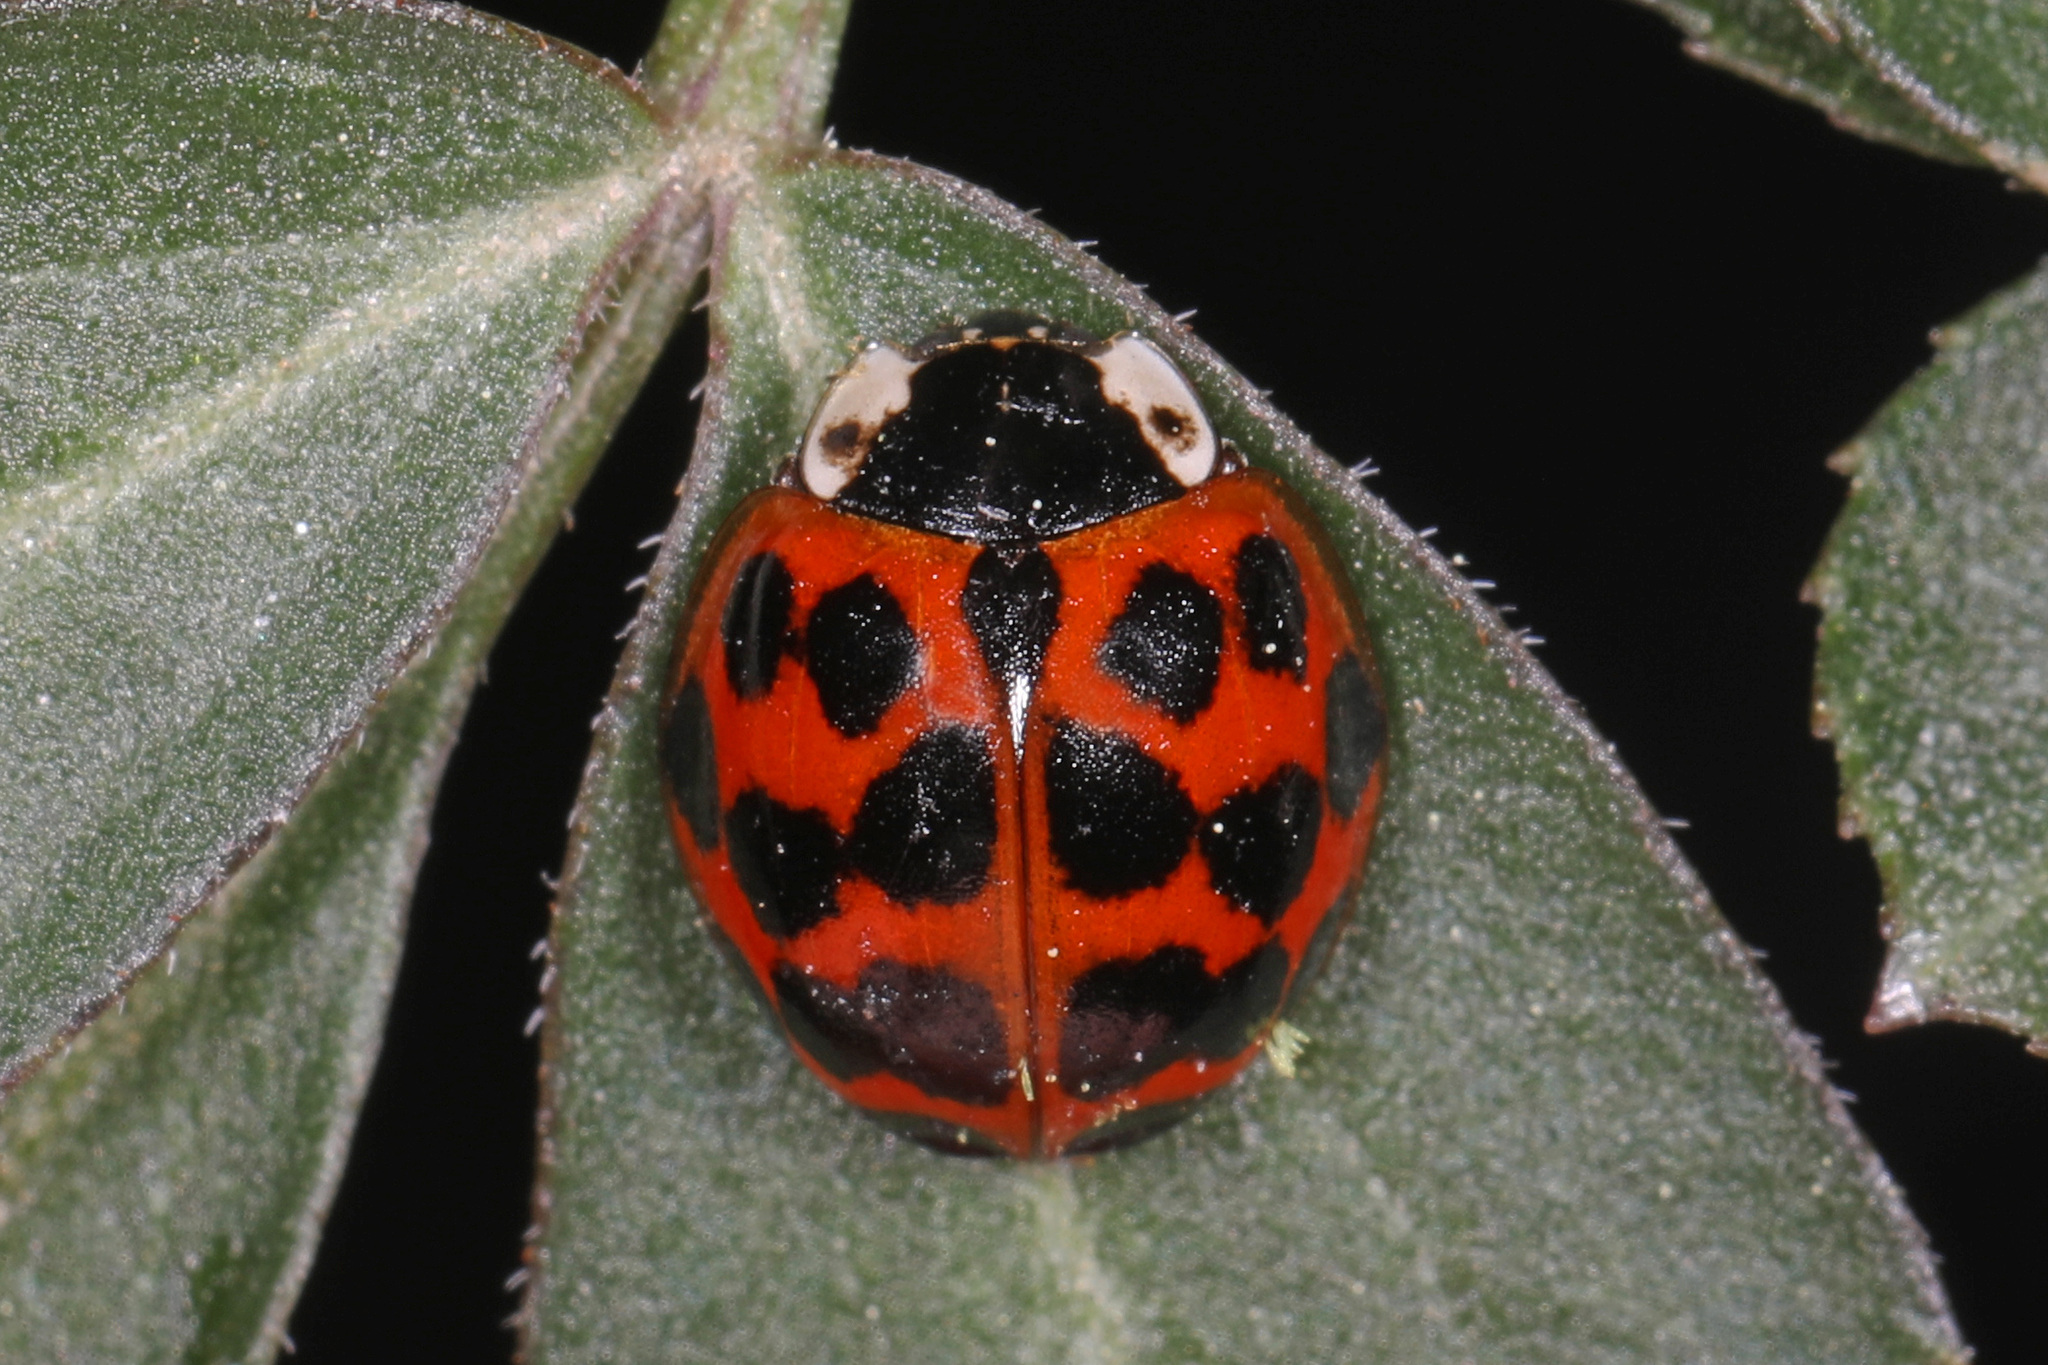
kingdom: Animalia
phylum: Arthropoda
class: Insecta
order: Coleoptera
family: Coccinellidae
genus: Harmonia
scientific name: Harmonia axyridis
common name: Harlequin ladybird
